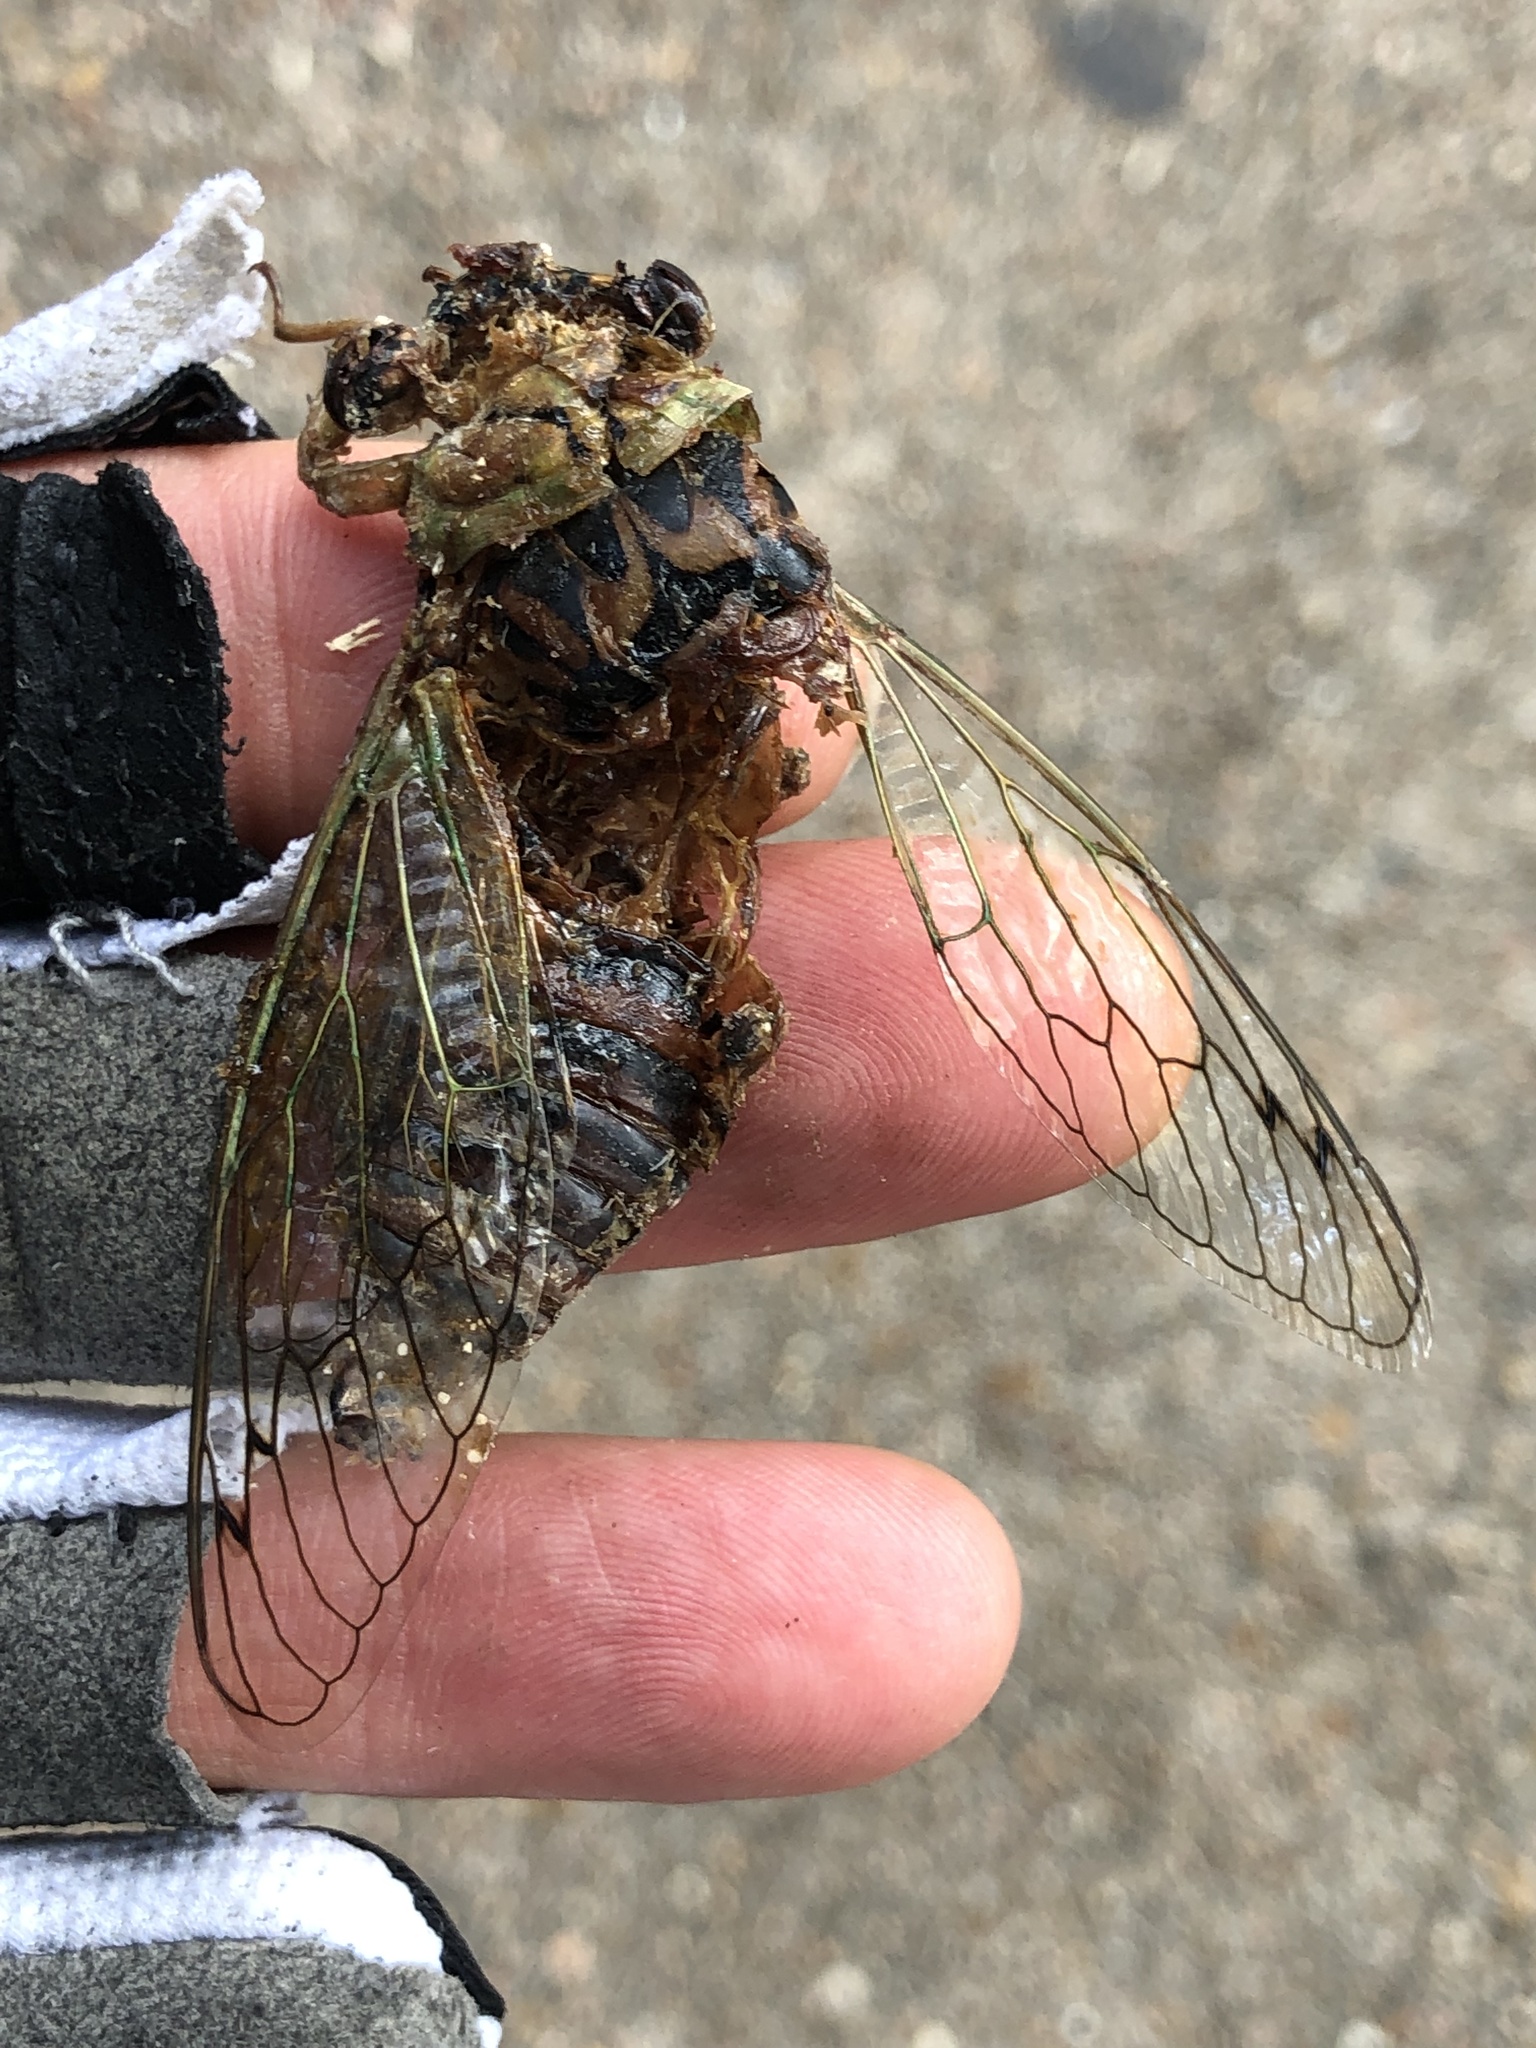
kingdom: Animalia
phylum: Arthropoda
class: Insecta
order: Hemiptera
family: Cicadidae
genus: Megatibicen
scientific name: Megatibicen resh
